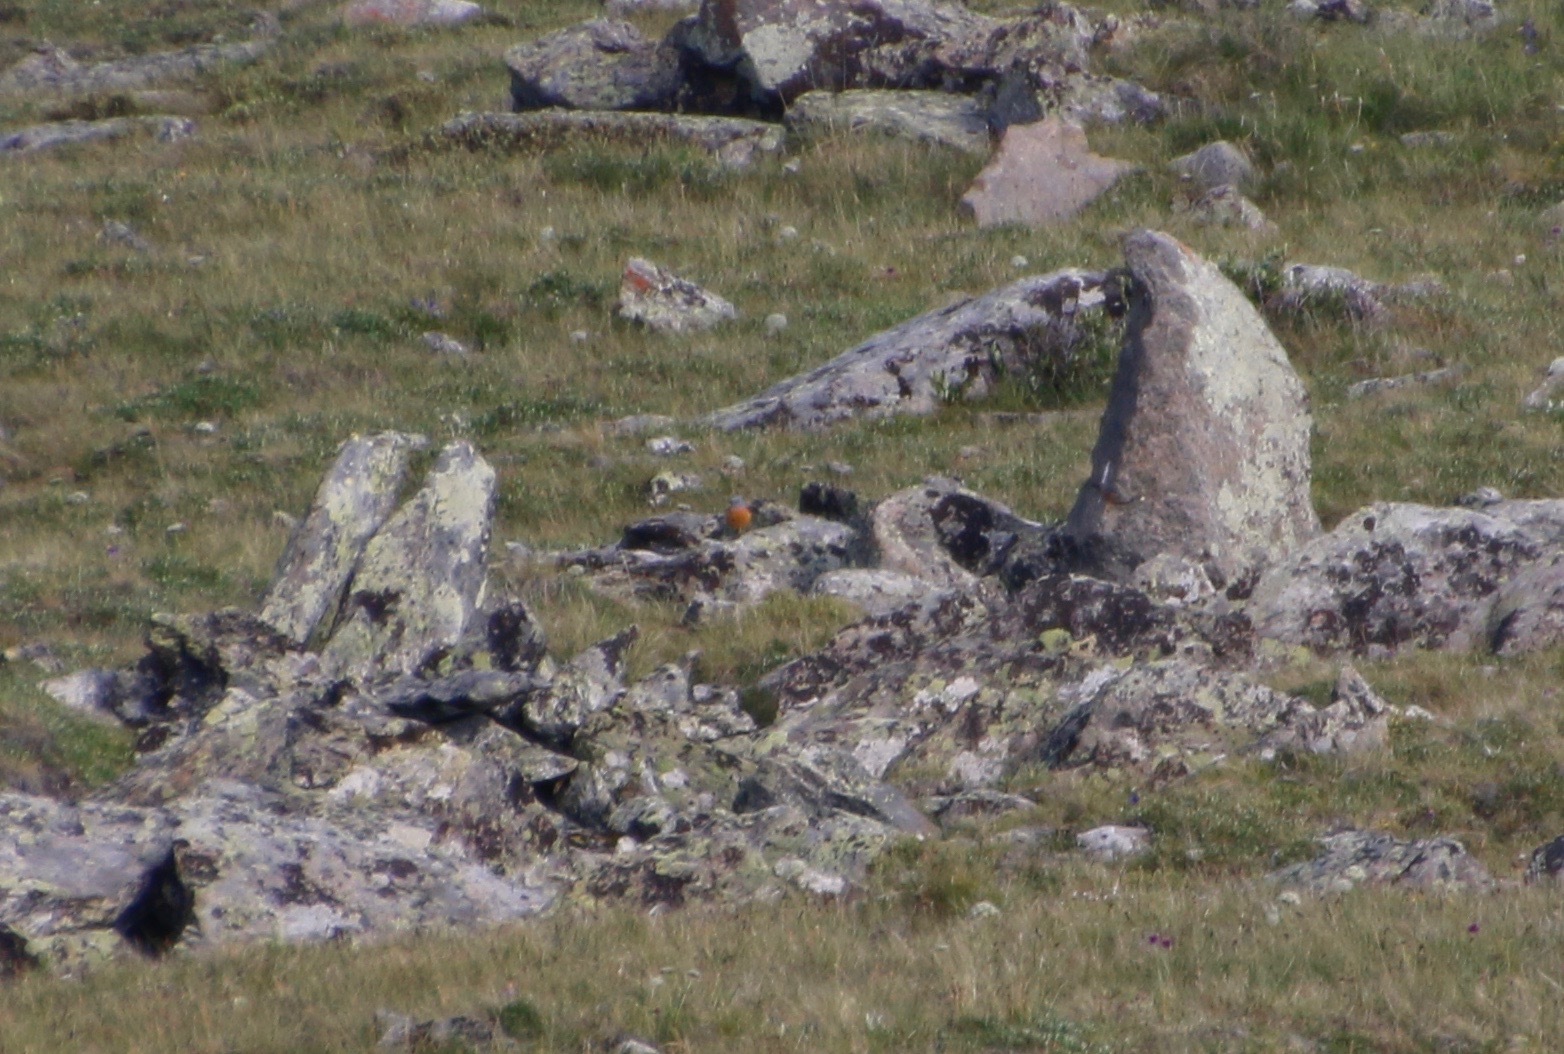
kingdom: Animalia
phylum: Chordata
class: Aves
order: Passeriformes
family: Muscicapidae
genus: Monticola
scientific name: Monticola saxatilis
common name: Rufous-tailed rock thrush
